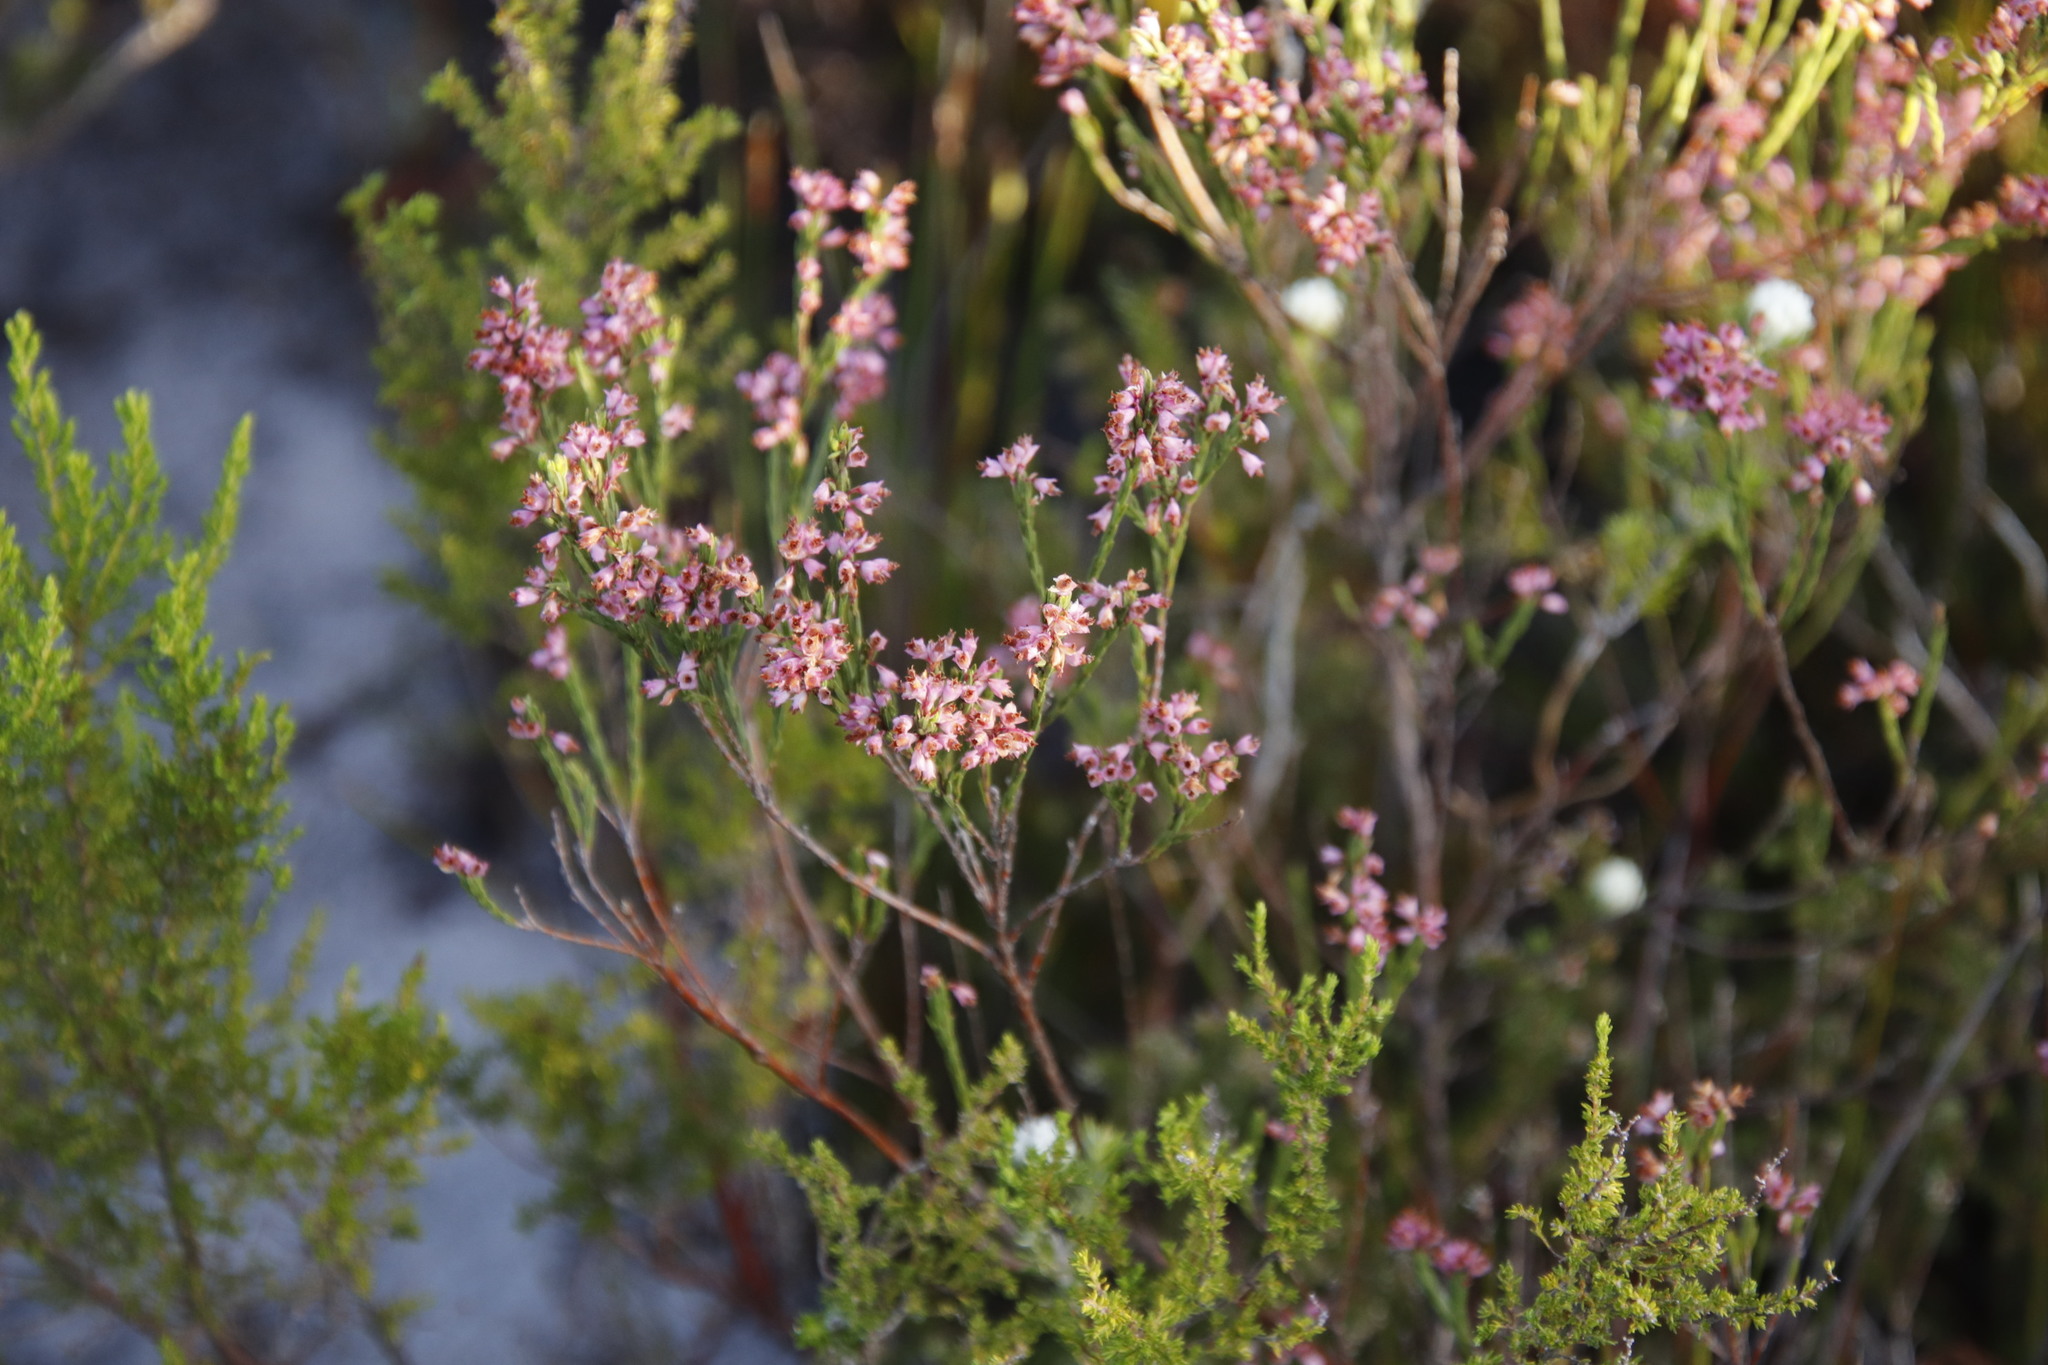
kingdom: Plantae
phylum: Tracheophyta
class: Magnoliopsida
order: Ericales
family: Ericaceae
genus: Erica
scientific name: Erica corifolia
